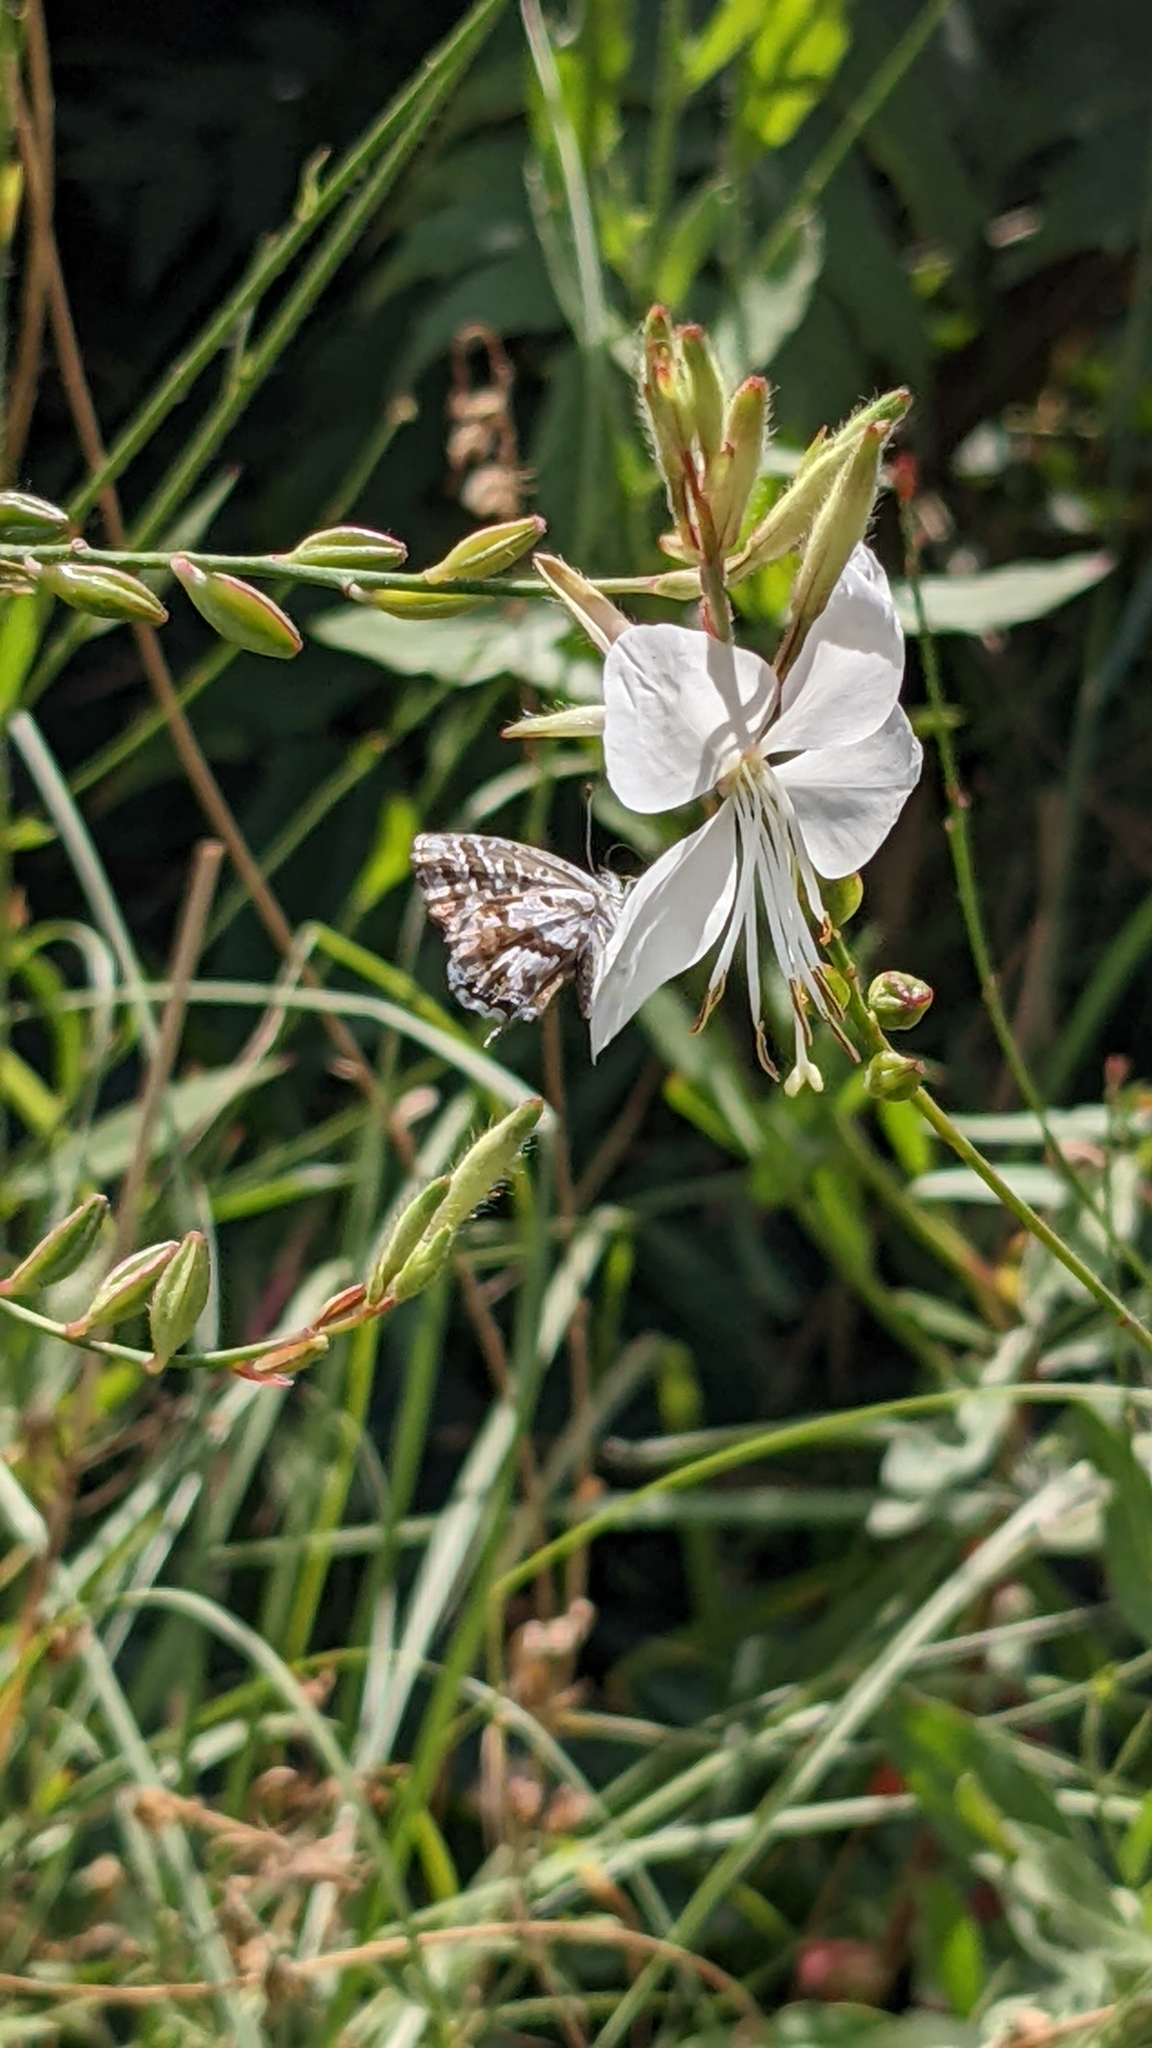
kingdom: Animalia
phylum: Arthropoda
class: Insecta
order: Lepidoptera
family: Lycaenidae
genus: Cacyreus
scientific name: Cacyreus marshalli
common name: Geranium bronze
